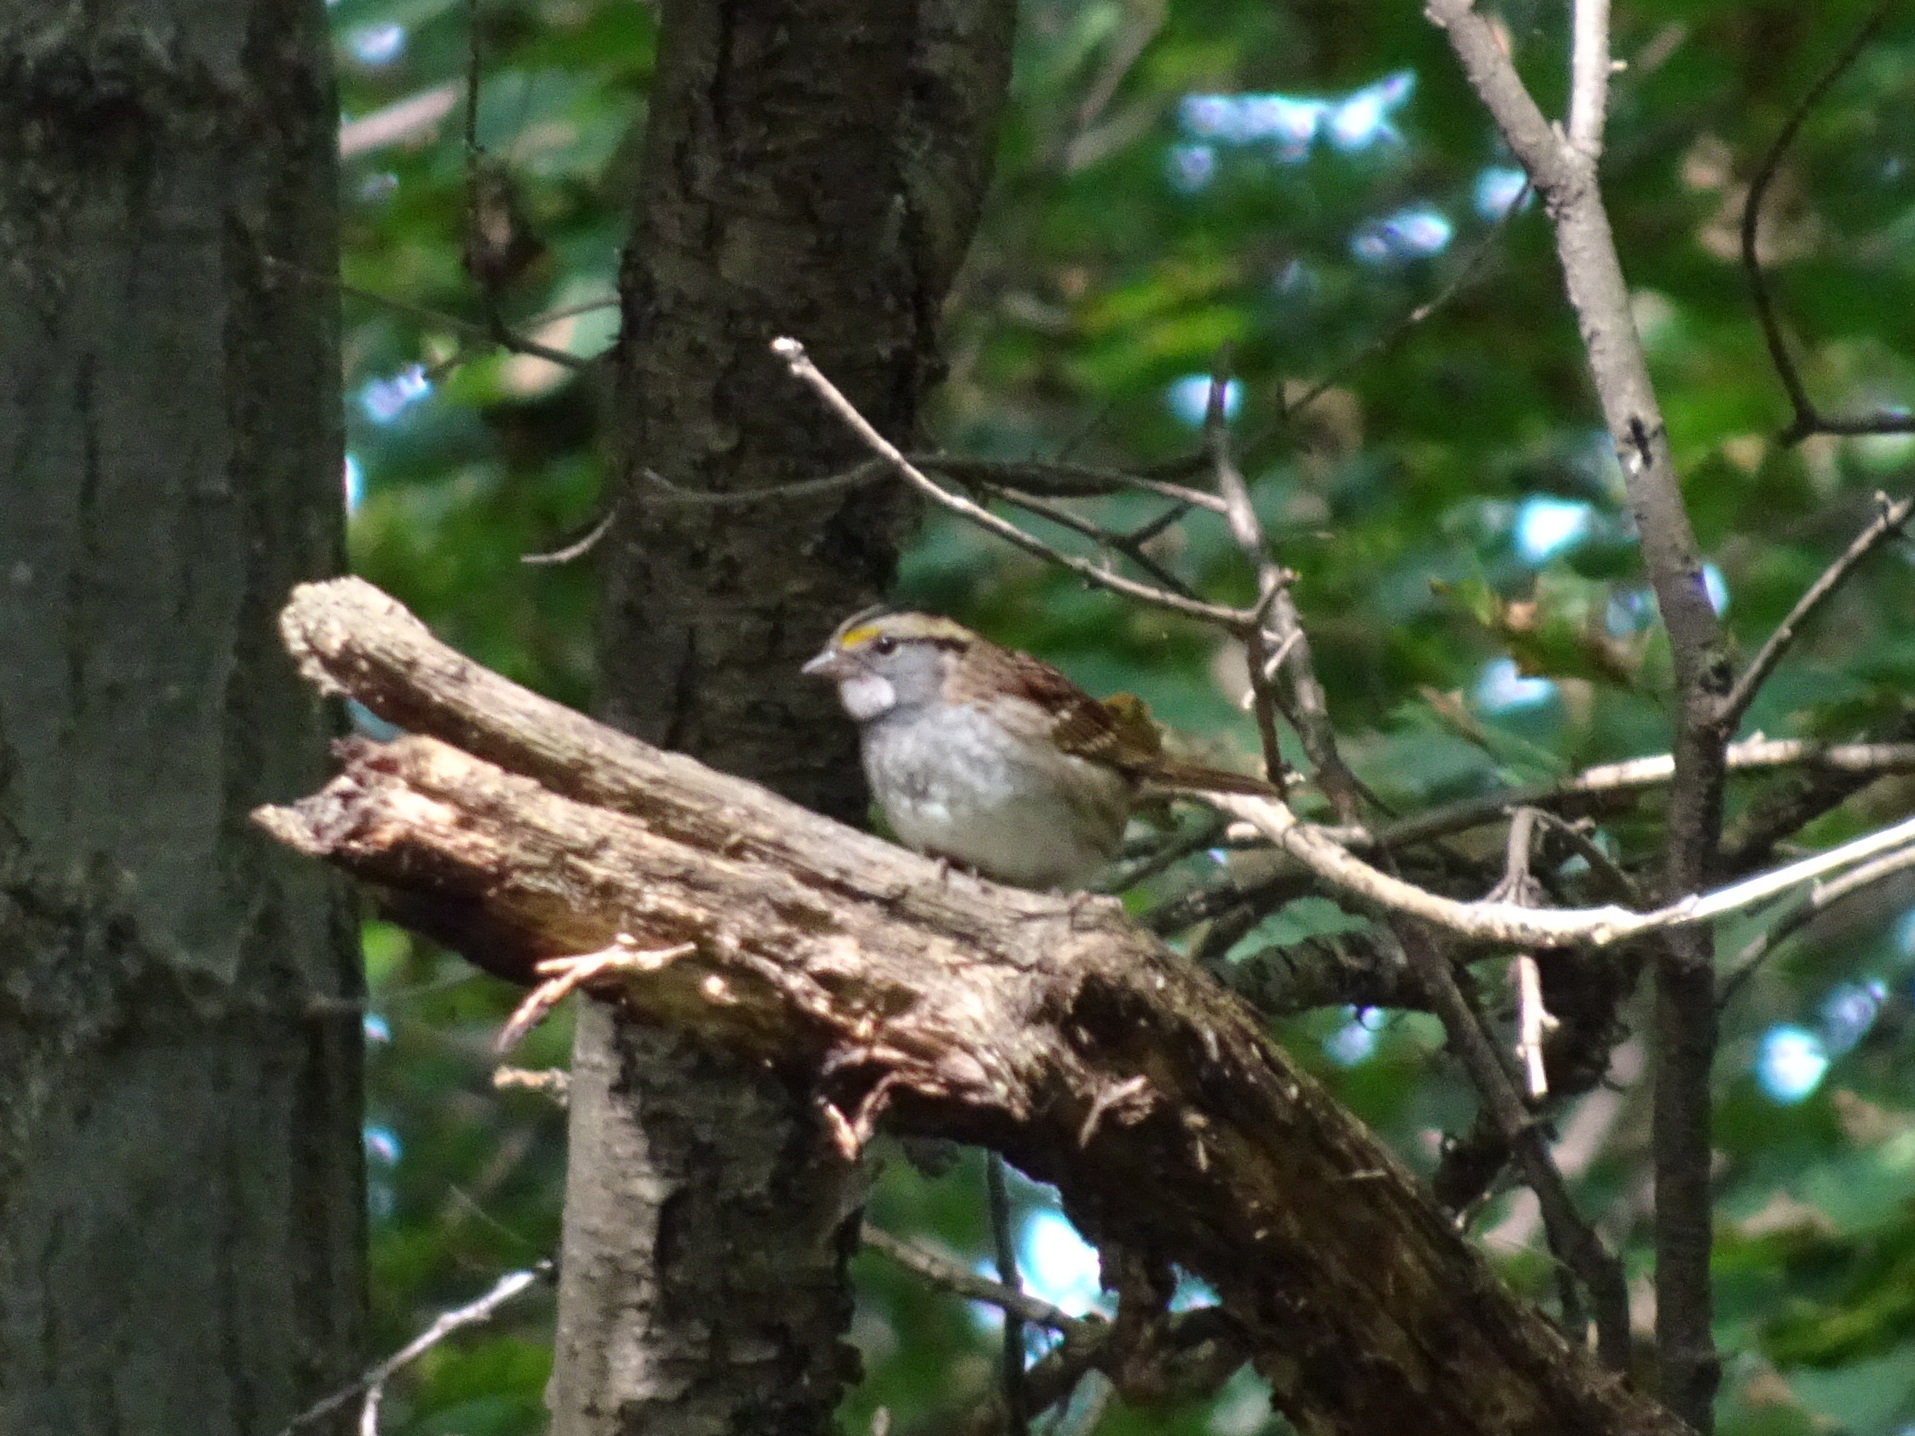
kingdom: Animalia
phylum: Chordata
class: Aves
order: Passeriformes
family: Passerellidae
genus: Zonotrichia
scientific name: Zonotrichia albicollis
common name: White-throated sparrow
